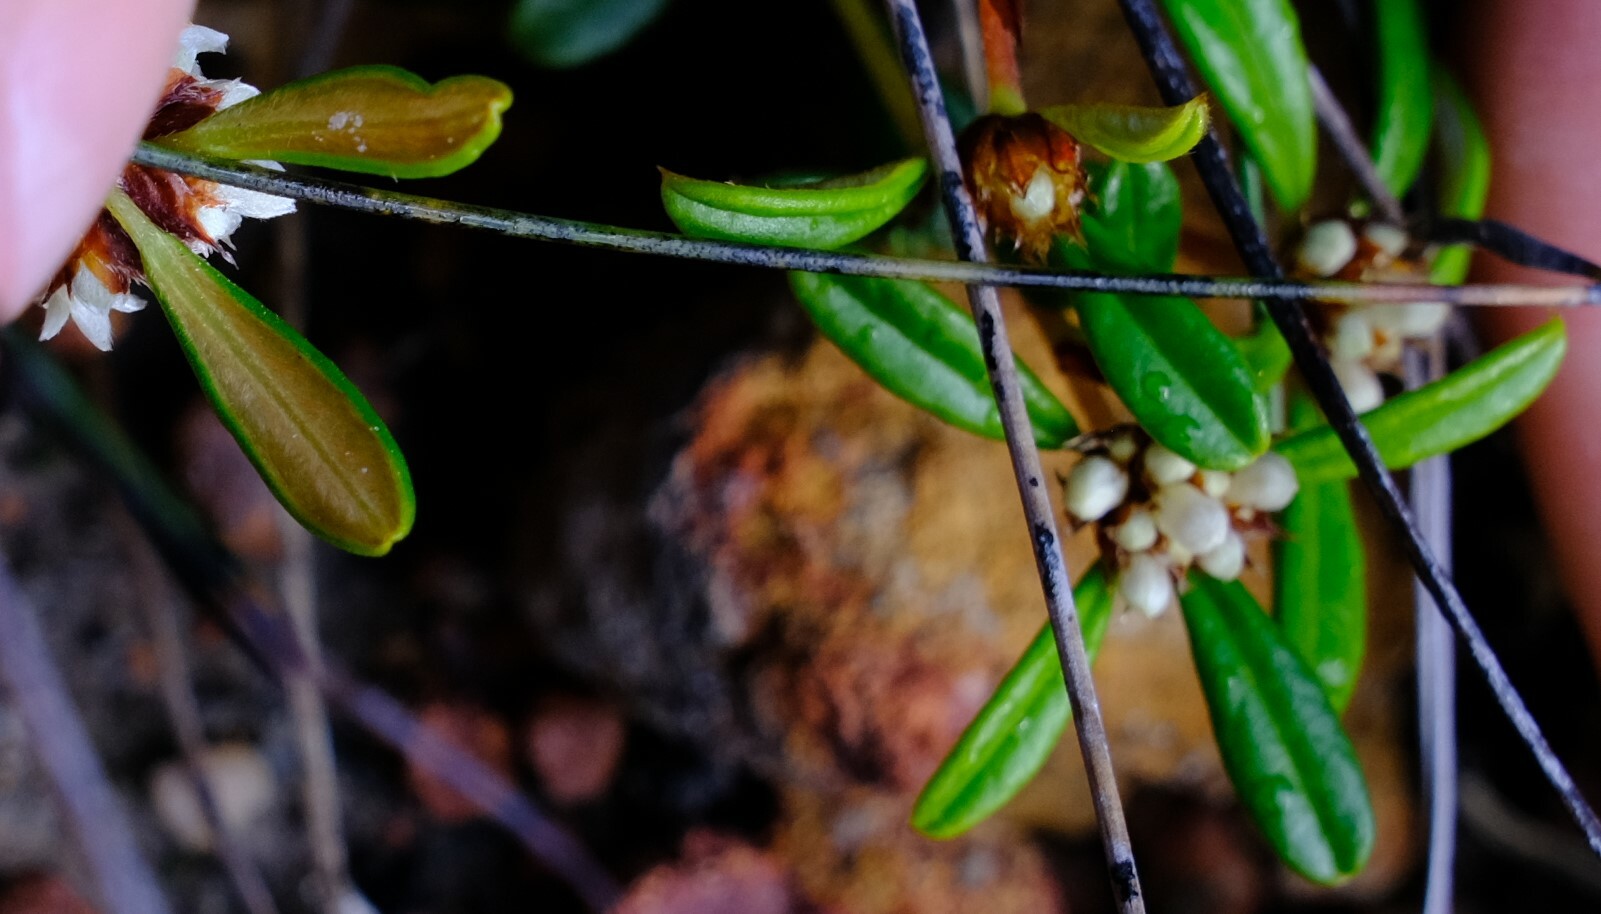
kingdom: Plantae
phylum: Tracheophyta
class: Magnoliopsida
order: Rosales
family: Rhamnaceae
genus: Stenanthemum
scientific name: Stenanthemum reissekii
